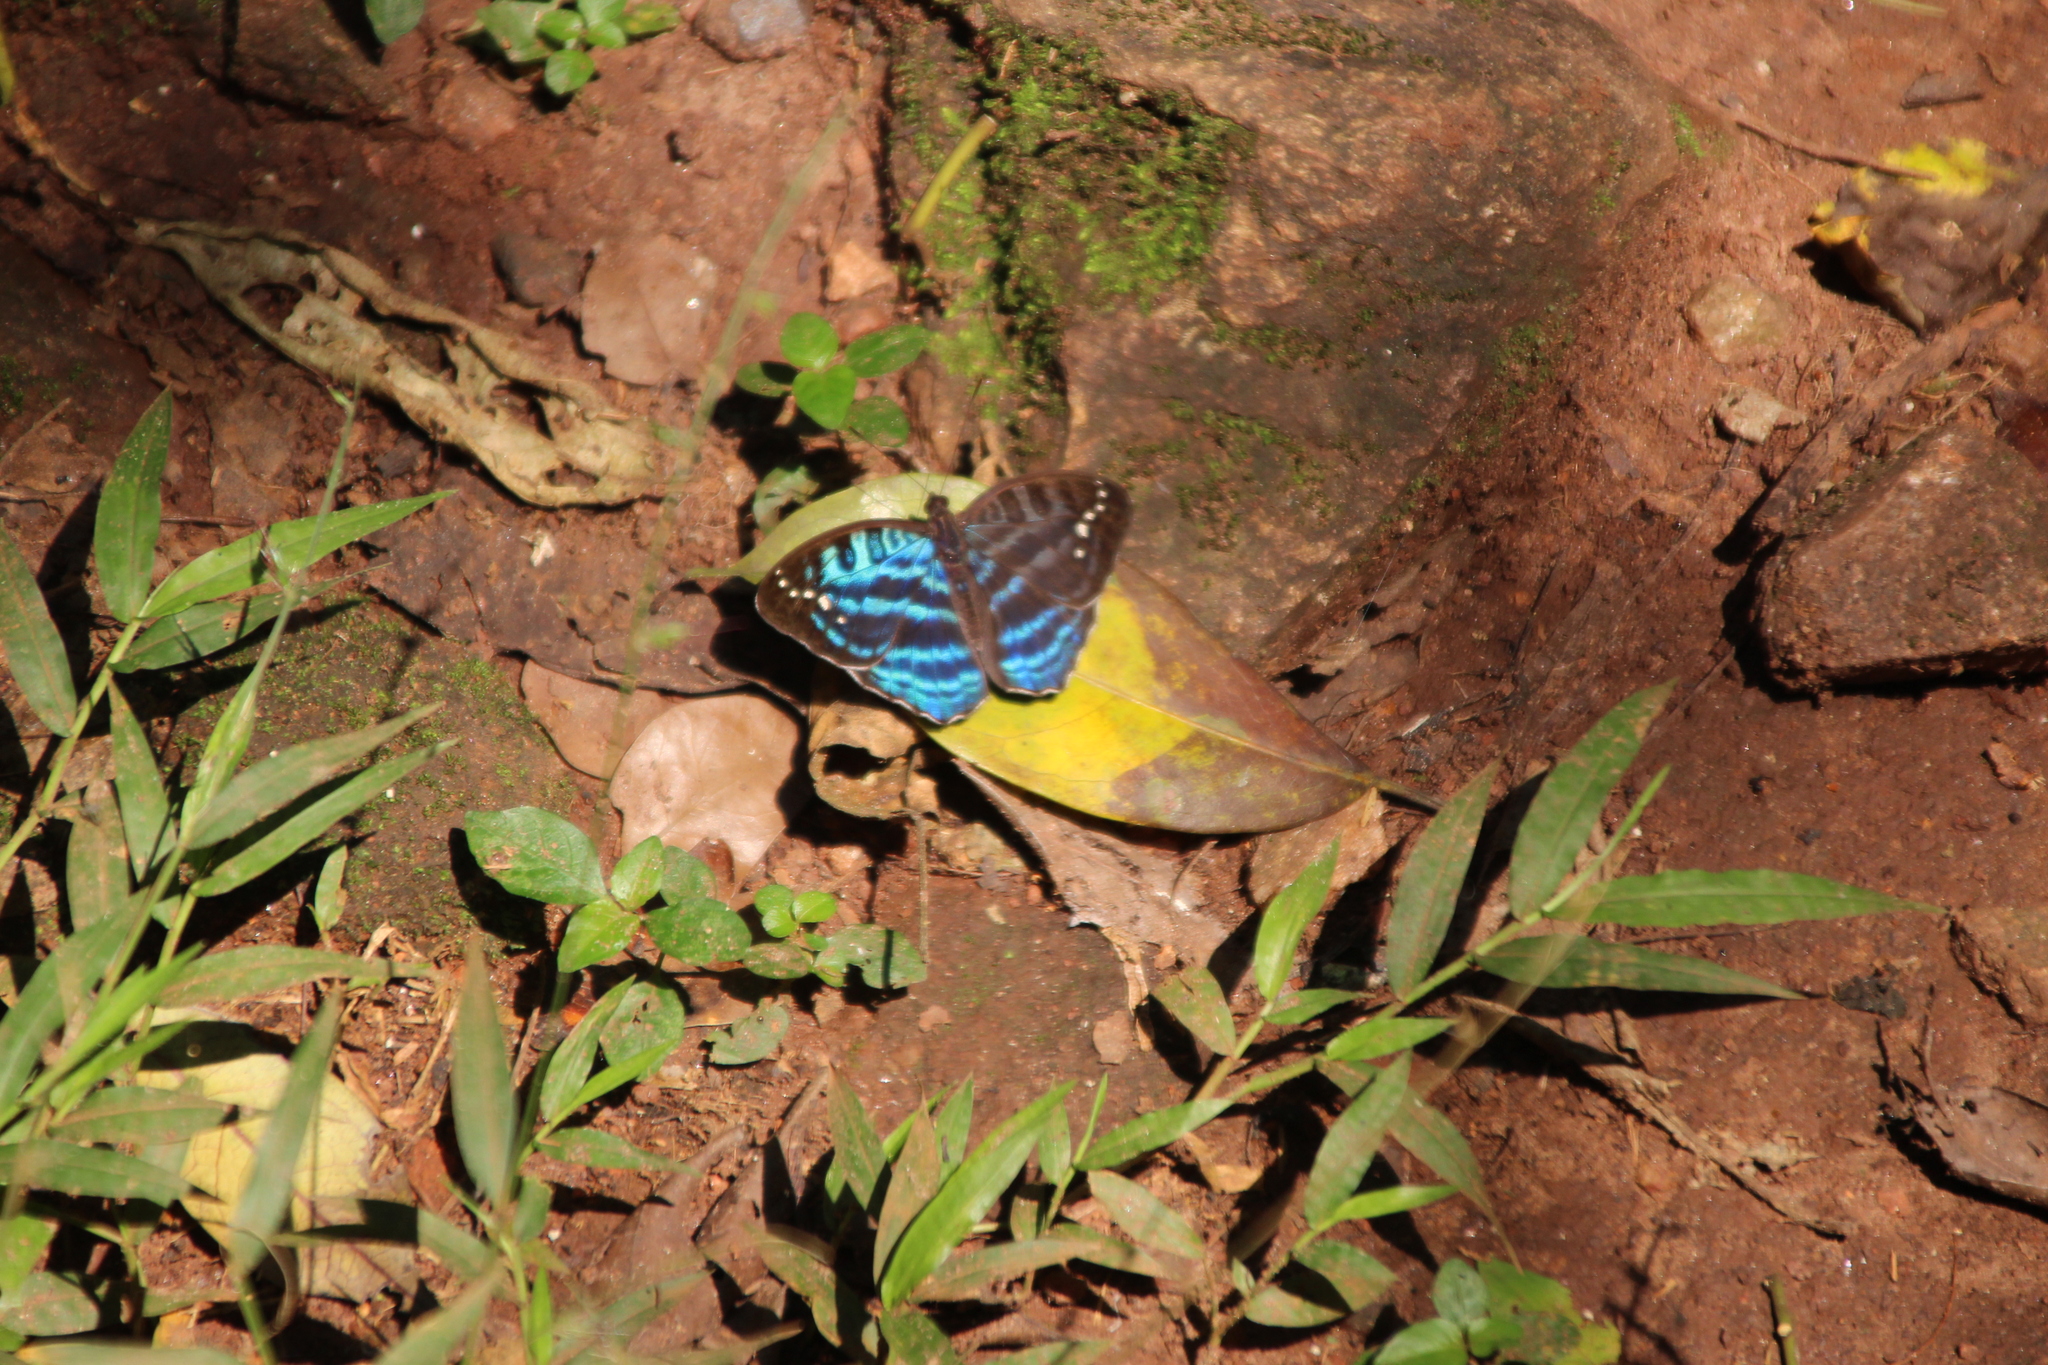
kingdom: Animalia
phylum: Arthropoda
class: Insecta
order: Lepidoptera
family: Nymphalidae
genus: Cynandra
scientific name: Cynandra opis
